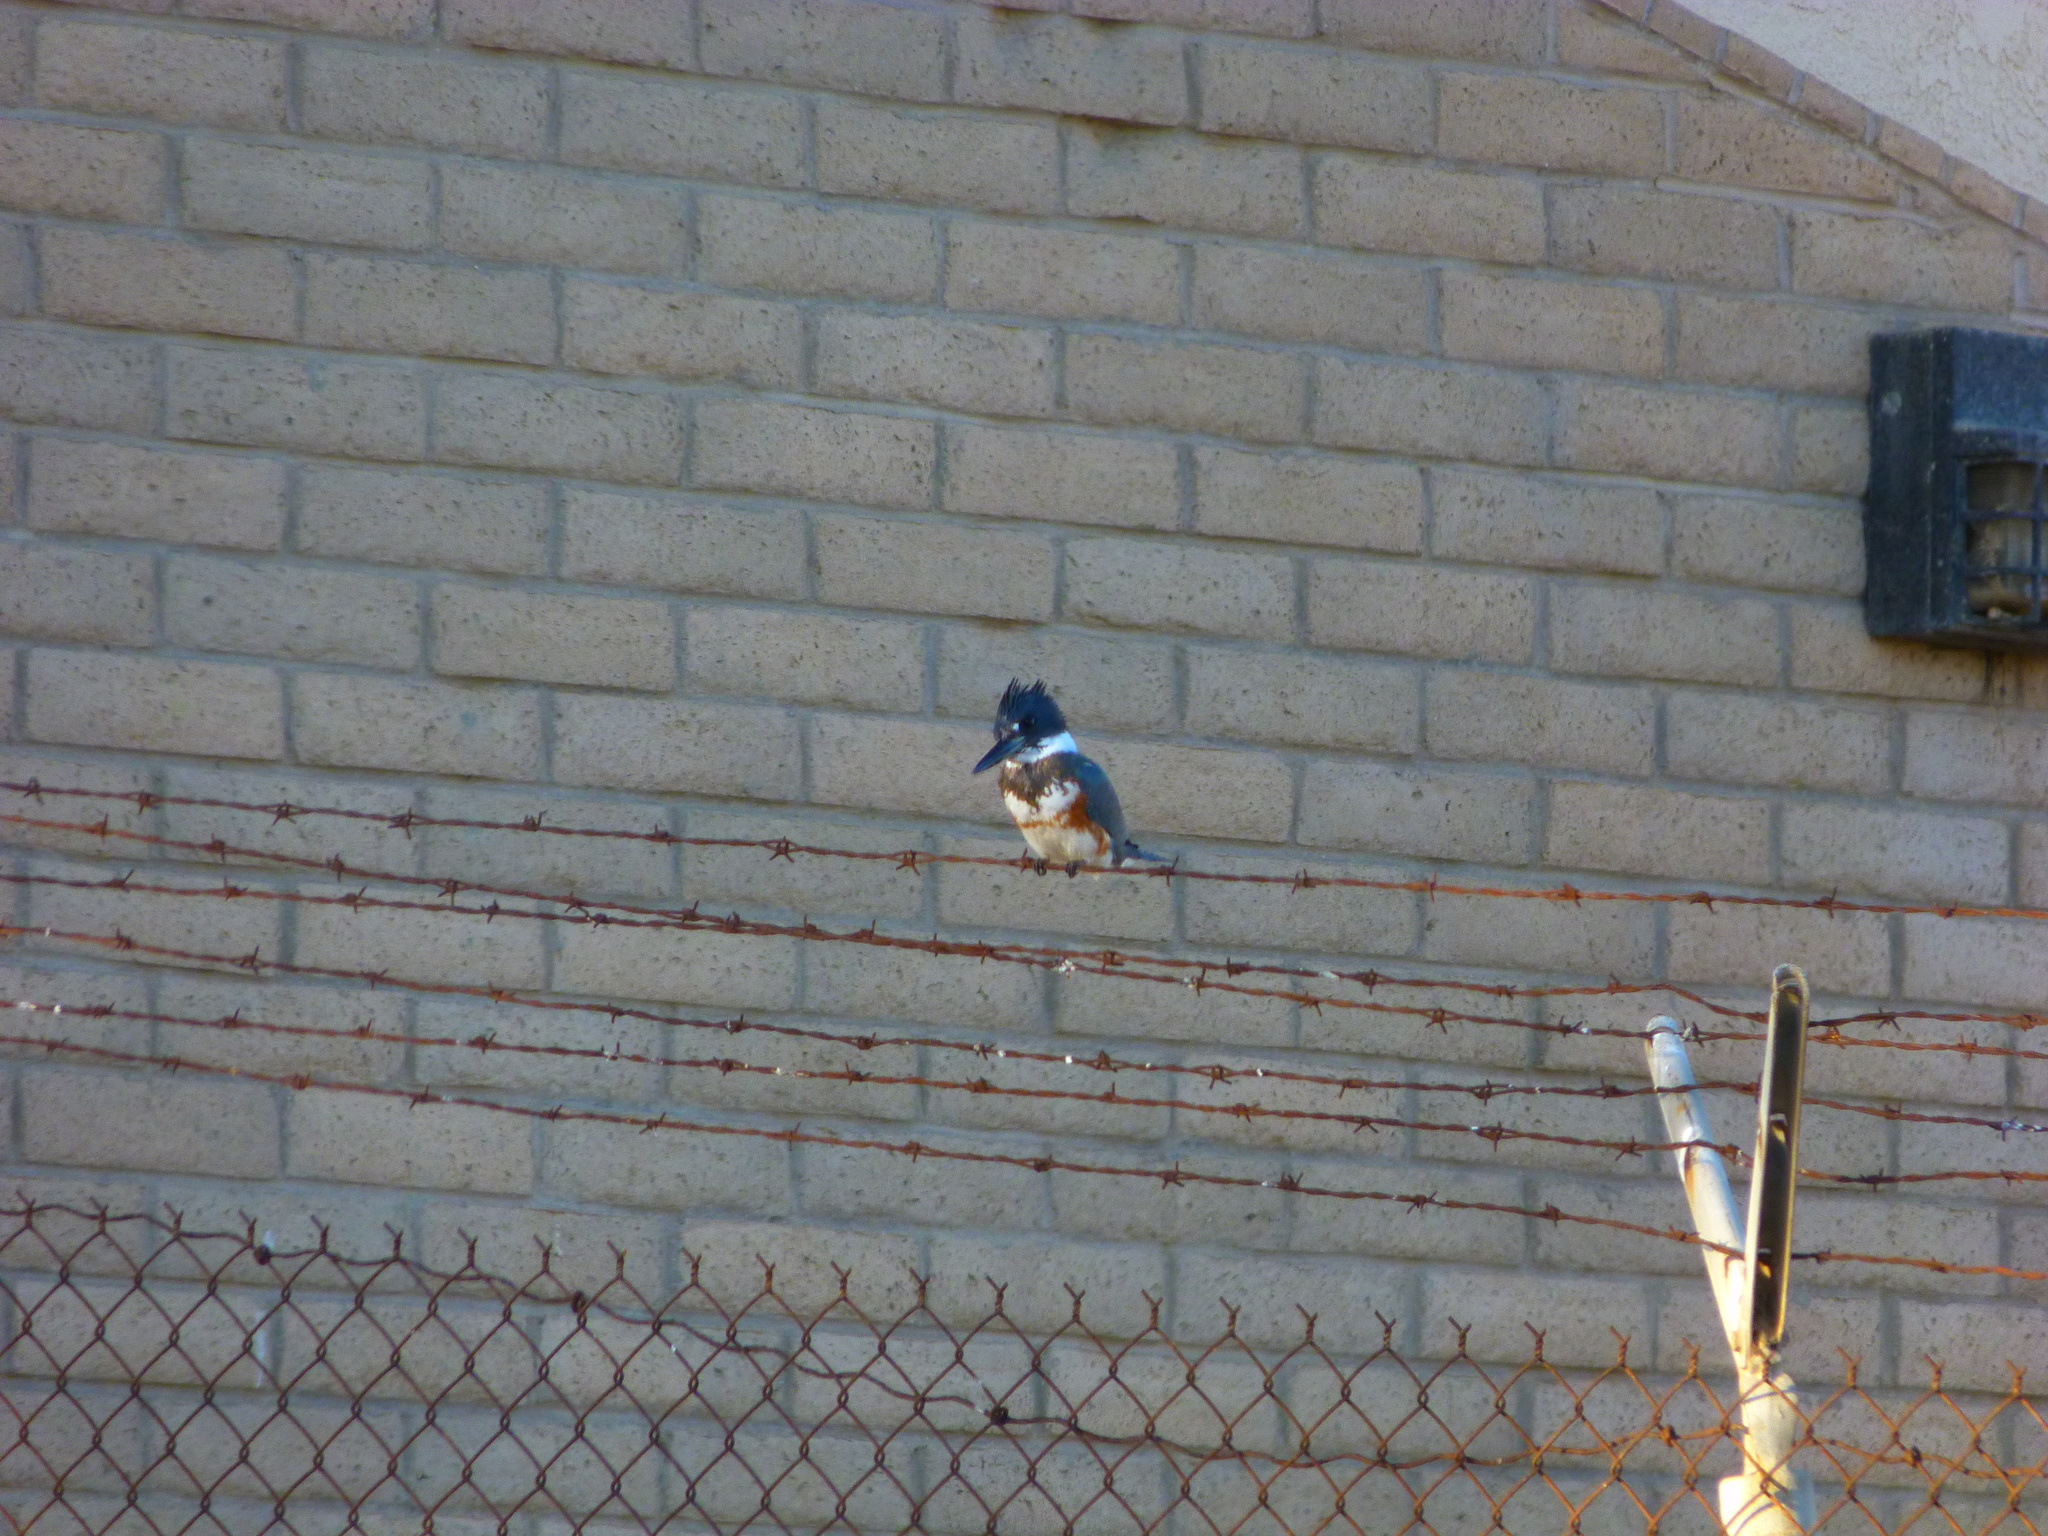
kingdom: Animalia
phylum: Chordata
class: Aves
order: Coraciiformes
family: Alcedinidae
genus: Megaceryle
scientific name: Megaceryle alcyon
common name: Belted kingfisher
